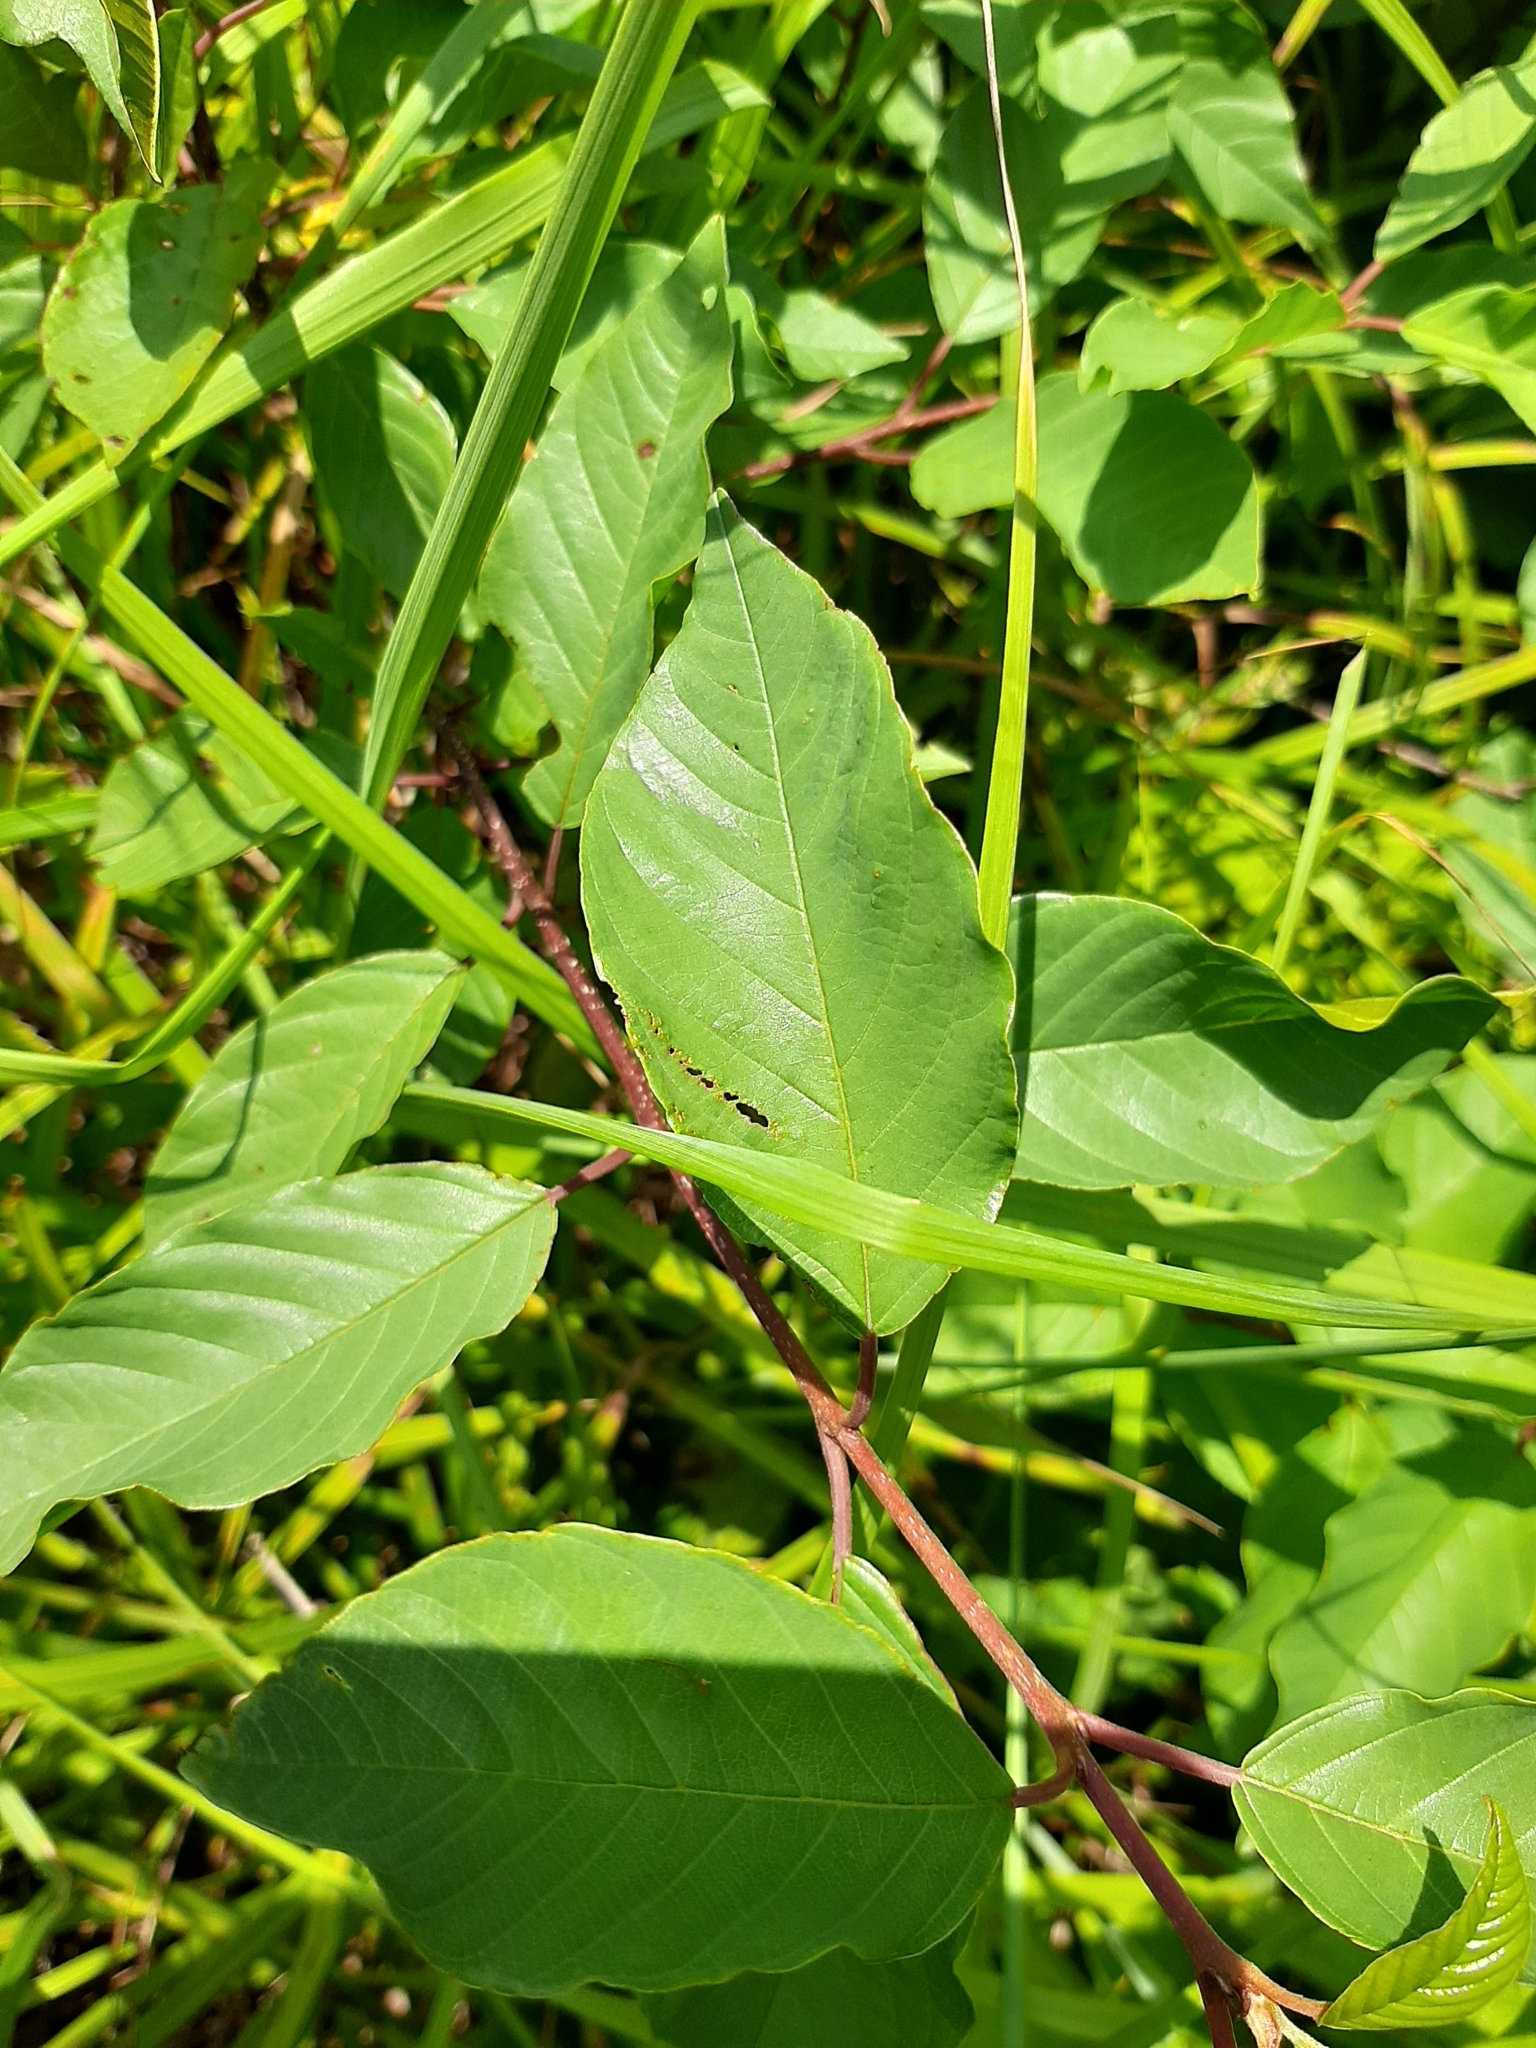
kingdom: Plantae
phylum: Tracheophyta
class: Magnoliopsida
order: Rosales
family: Rhamnaceae
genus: Frangula
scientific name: Frangula alnus
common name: Alder buckthorn
